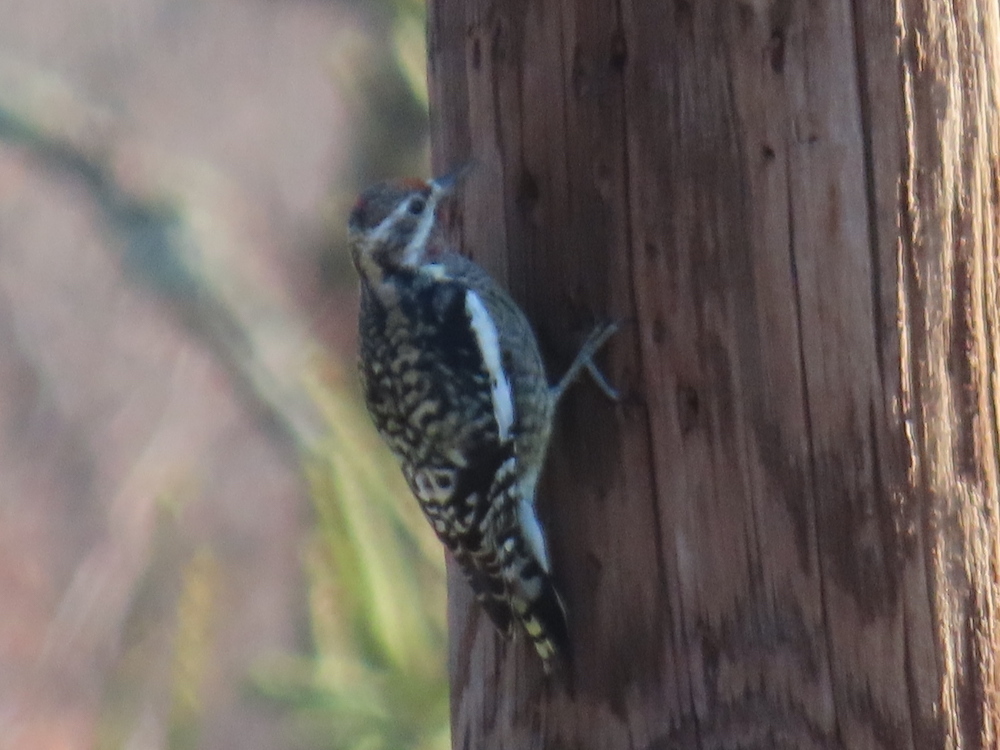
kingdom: Animalia
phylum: Chordata
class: Aves
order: Piciformes
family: Picidae
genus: Sphyrapicus
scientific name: Sphyrapicus varius
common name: Yellow-bellied sapsucker
